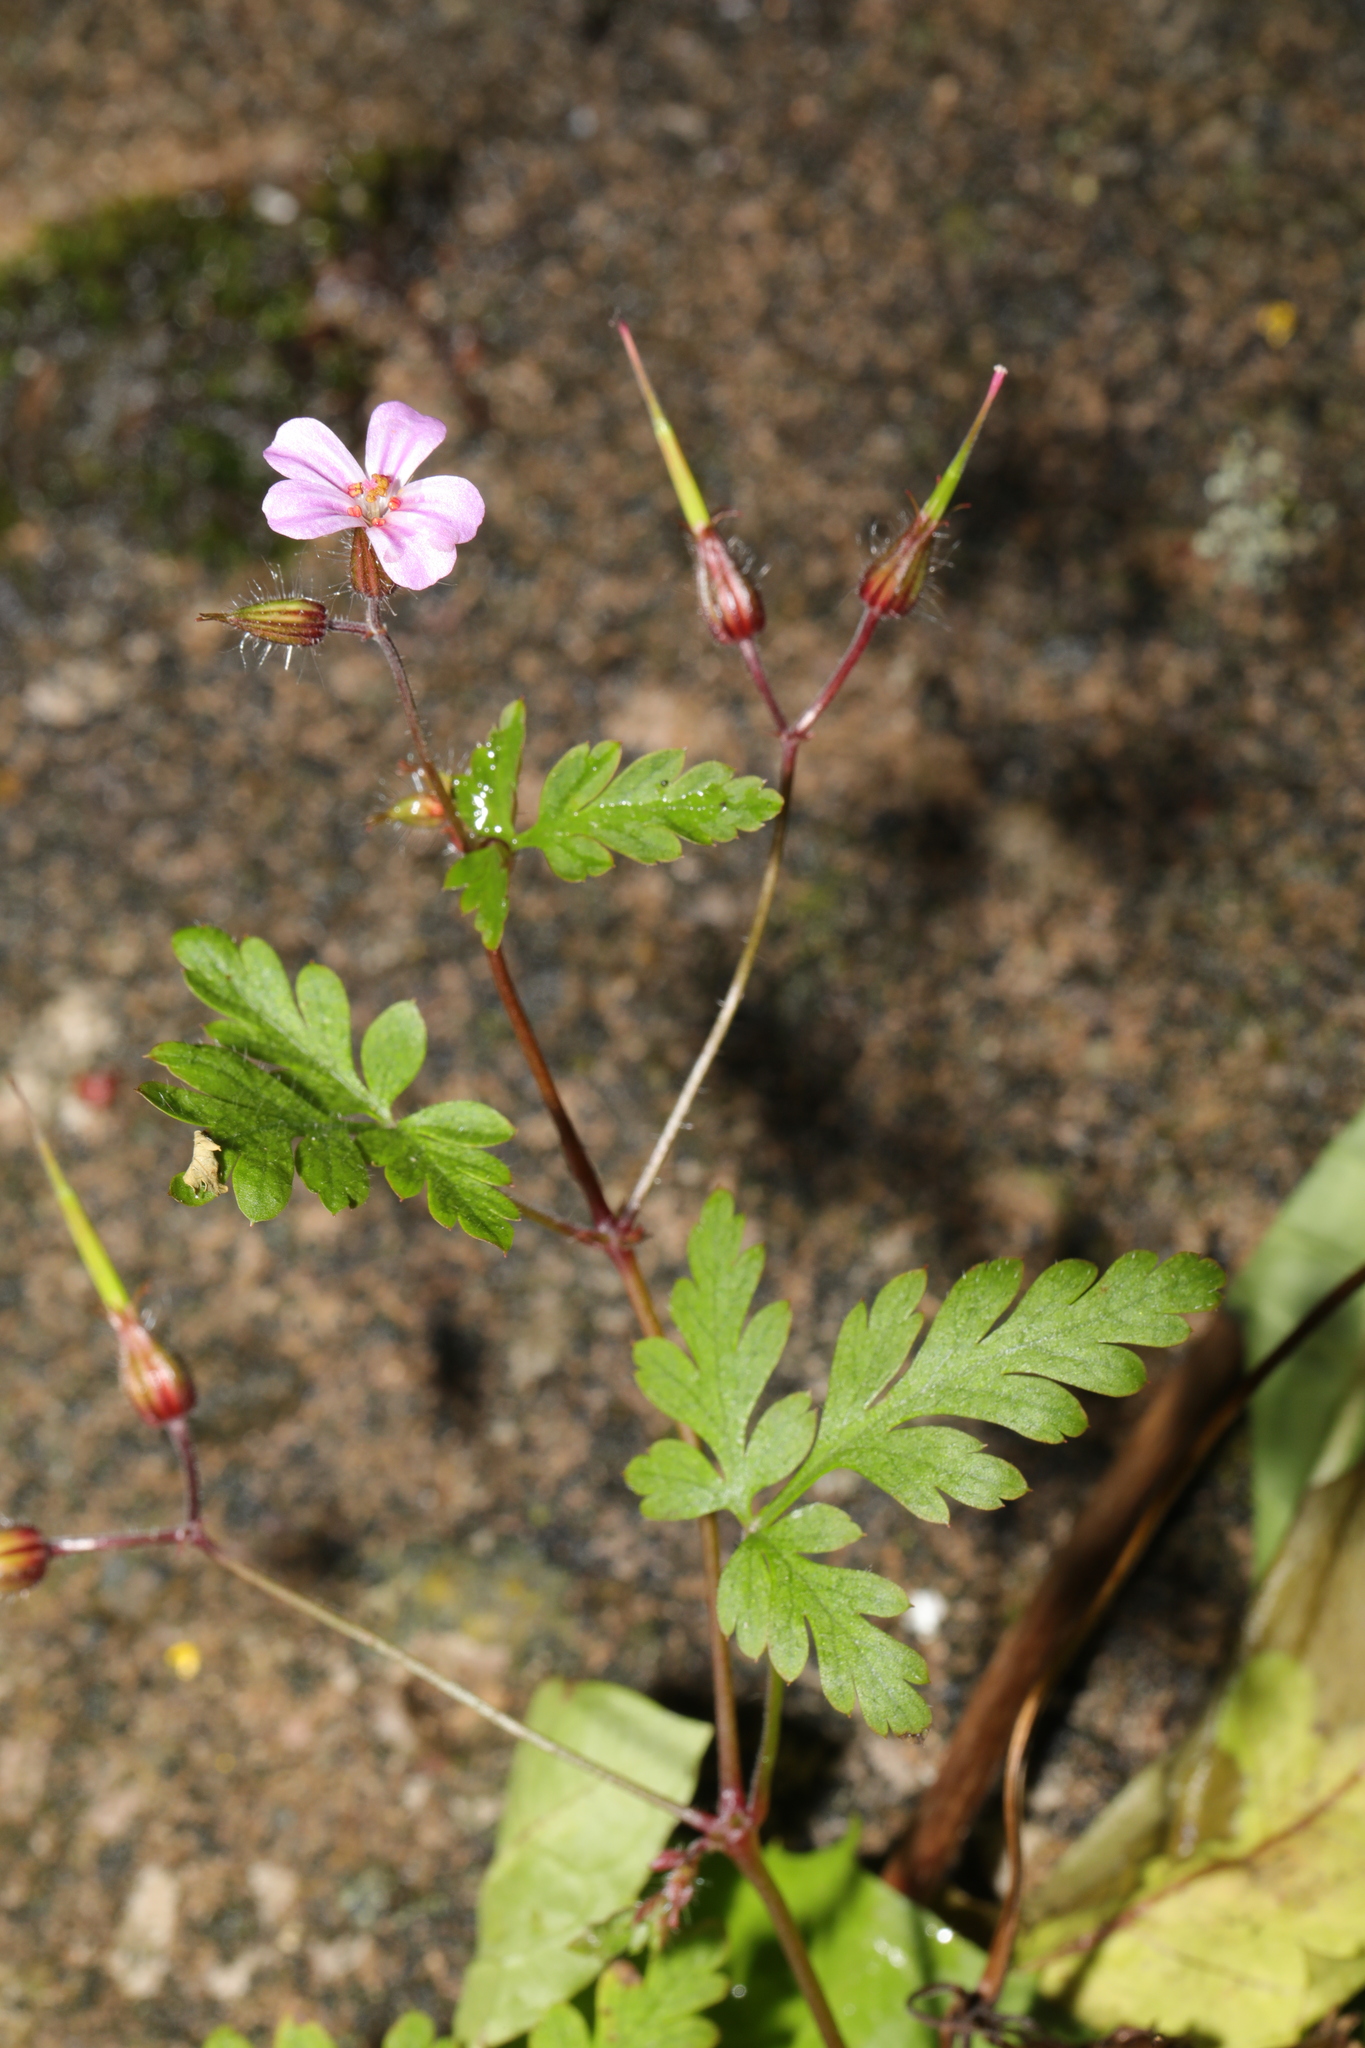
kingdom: Plantae
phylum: Tracheophyta
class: Magnoliopsida
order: Geraniales
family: Geraniaceae
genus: Geranium
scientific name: Geranium robertianum
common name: Herb-robert
